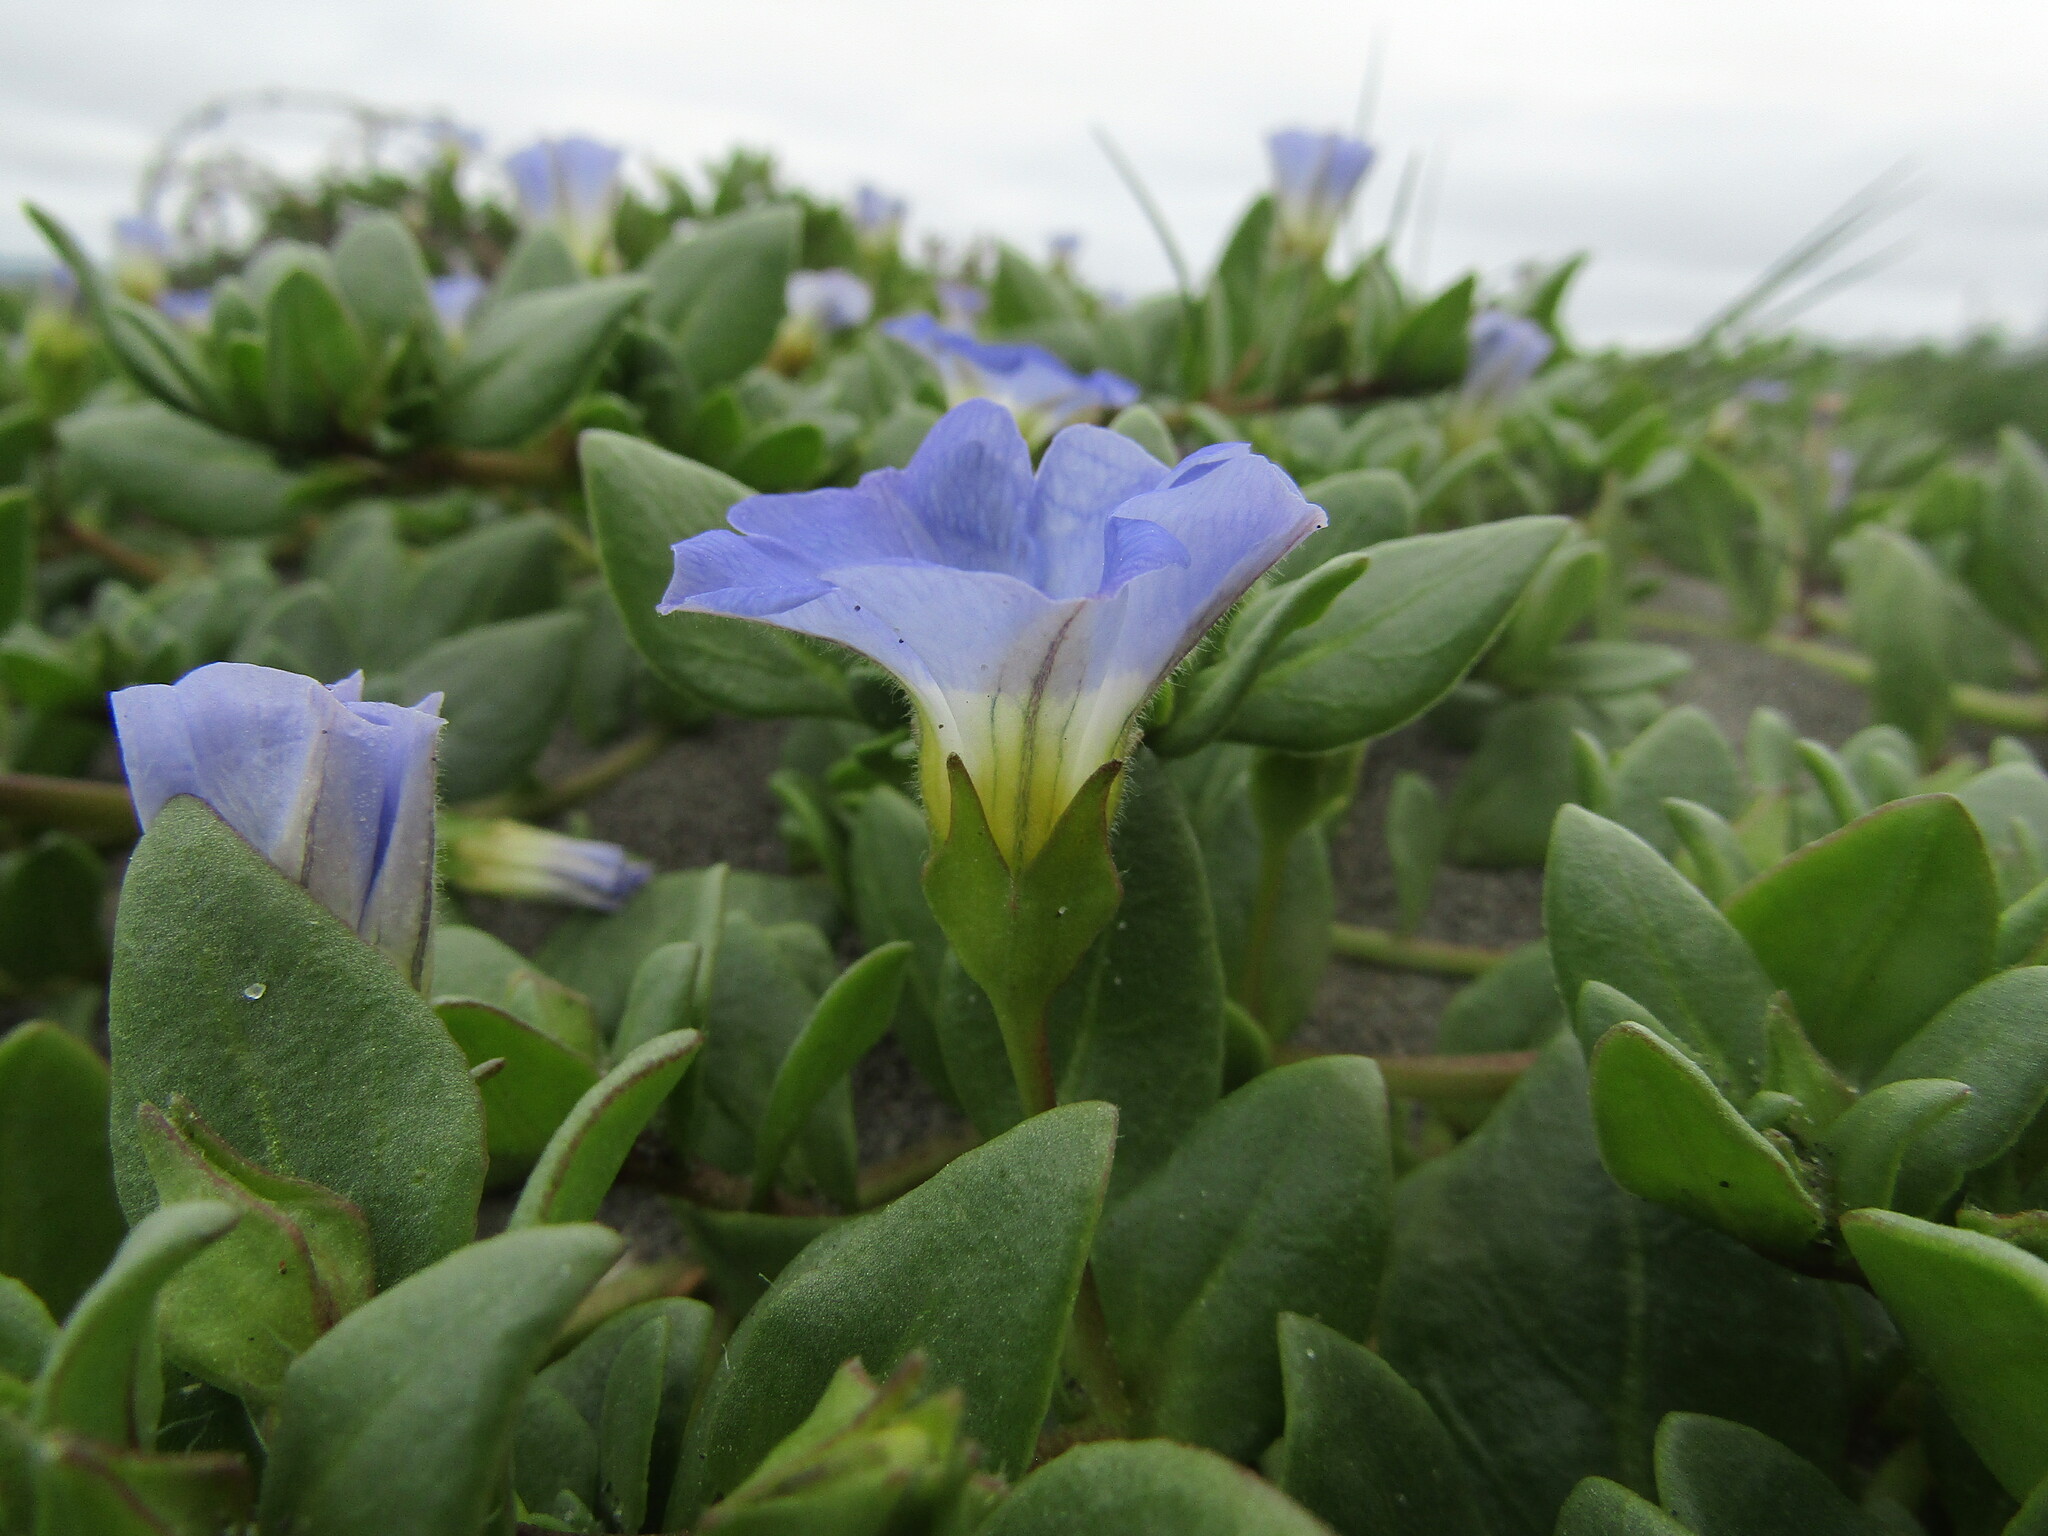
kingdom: Plantae
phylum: Tracheophyta
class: Magnoliopsida
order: Solanales
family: Solanaceae
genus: Nolana
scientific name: Nolana paradoxa
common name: Chilean-bellflower
